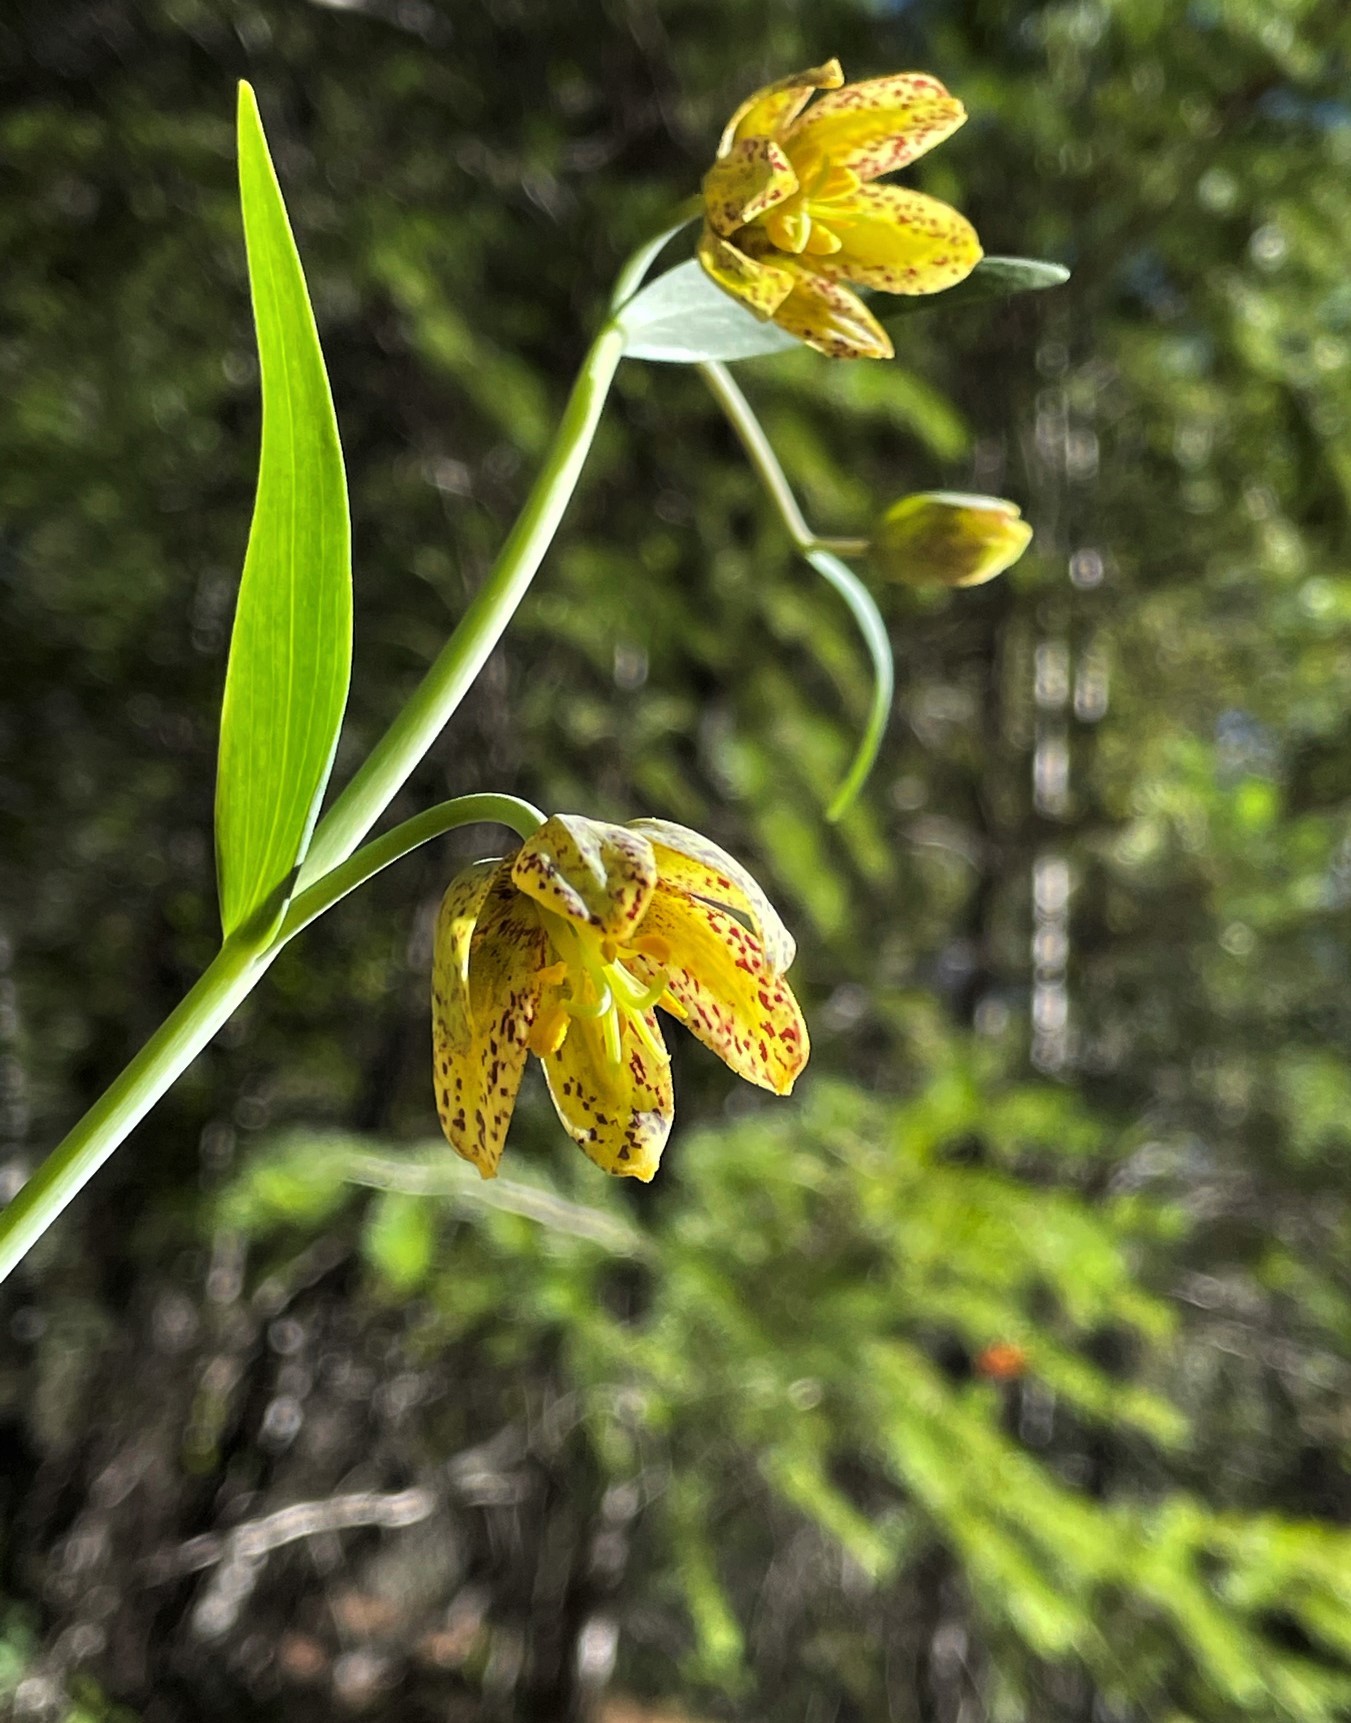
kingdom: Plantae
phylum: Tracheophyta
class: Liliopsida
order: Liliales
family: Liliaceae
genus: Fritillaria
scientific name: Fritillaria affinis
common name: Ojai fritillary
